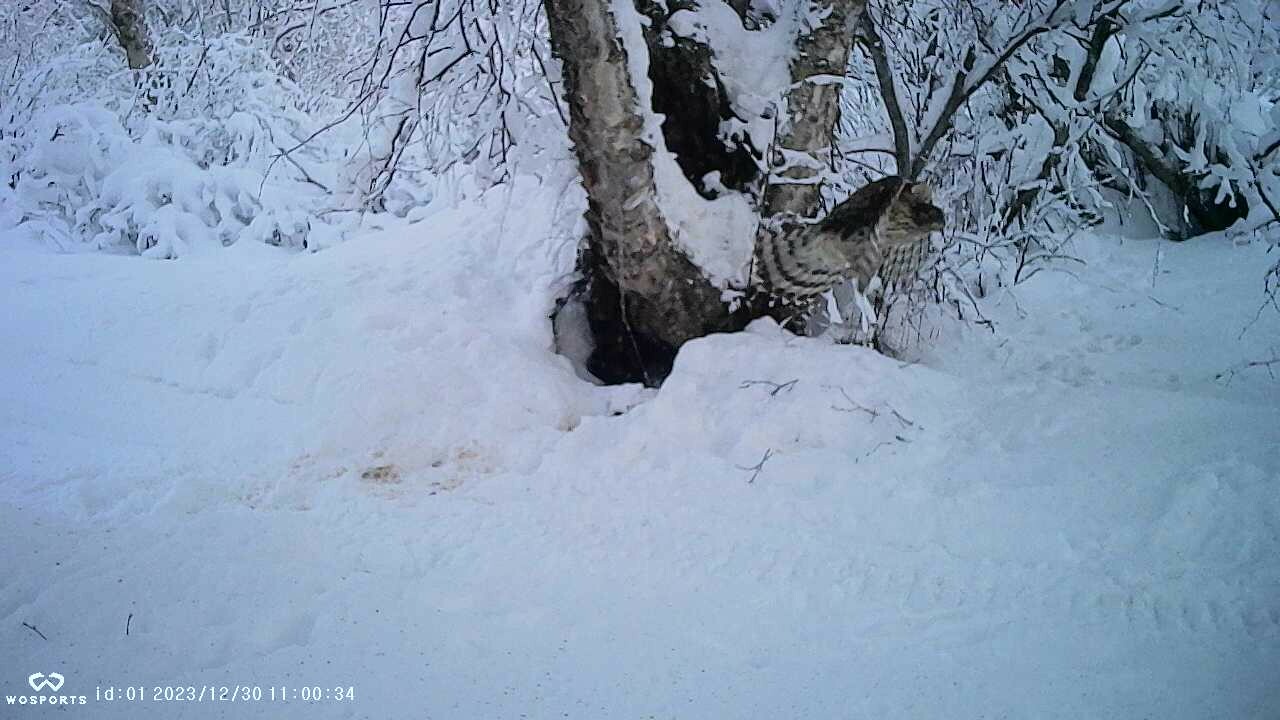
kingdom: Animalia
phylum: Chordata
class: Aves
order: Accipitriformes
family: Accipitridae
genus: Accipiter
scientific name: Accipiter gentilis
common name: Northern goshawk
